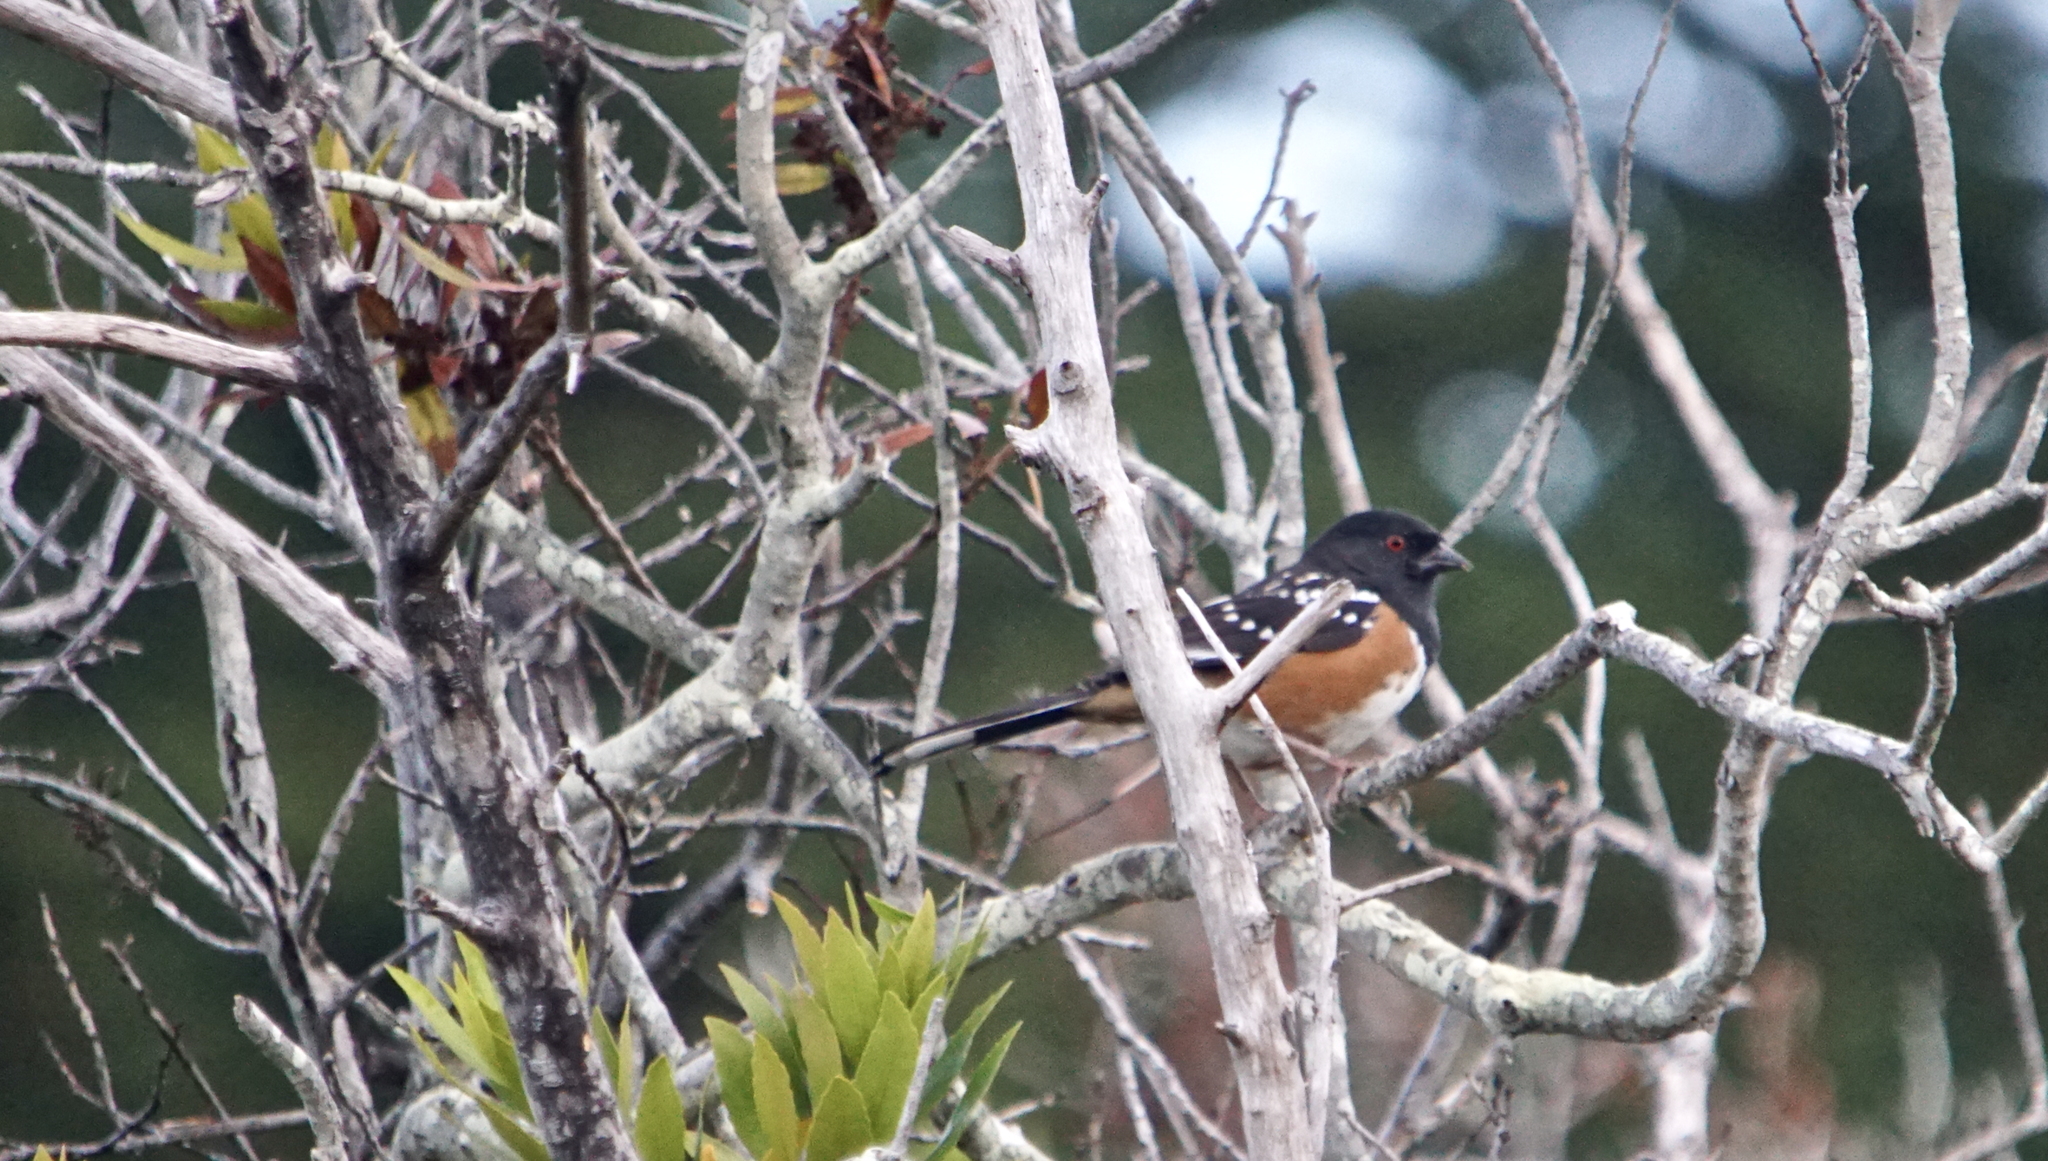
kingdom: Animalia
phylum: Chordata
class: Aves
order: Passeriformes
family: Passerellidae
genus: Pipilo
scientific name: Pipilo maculatus
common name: Spotted towhee
